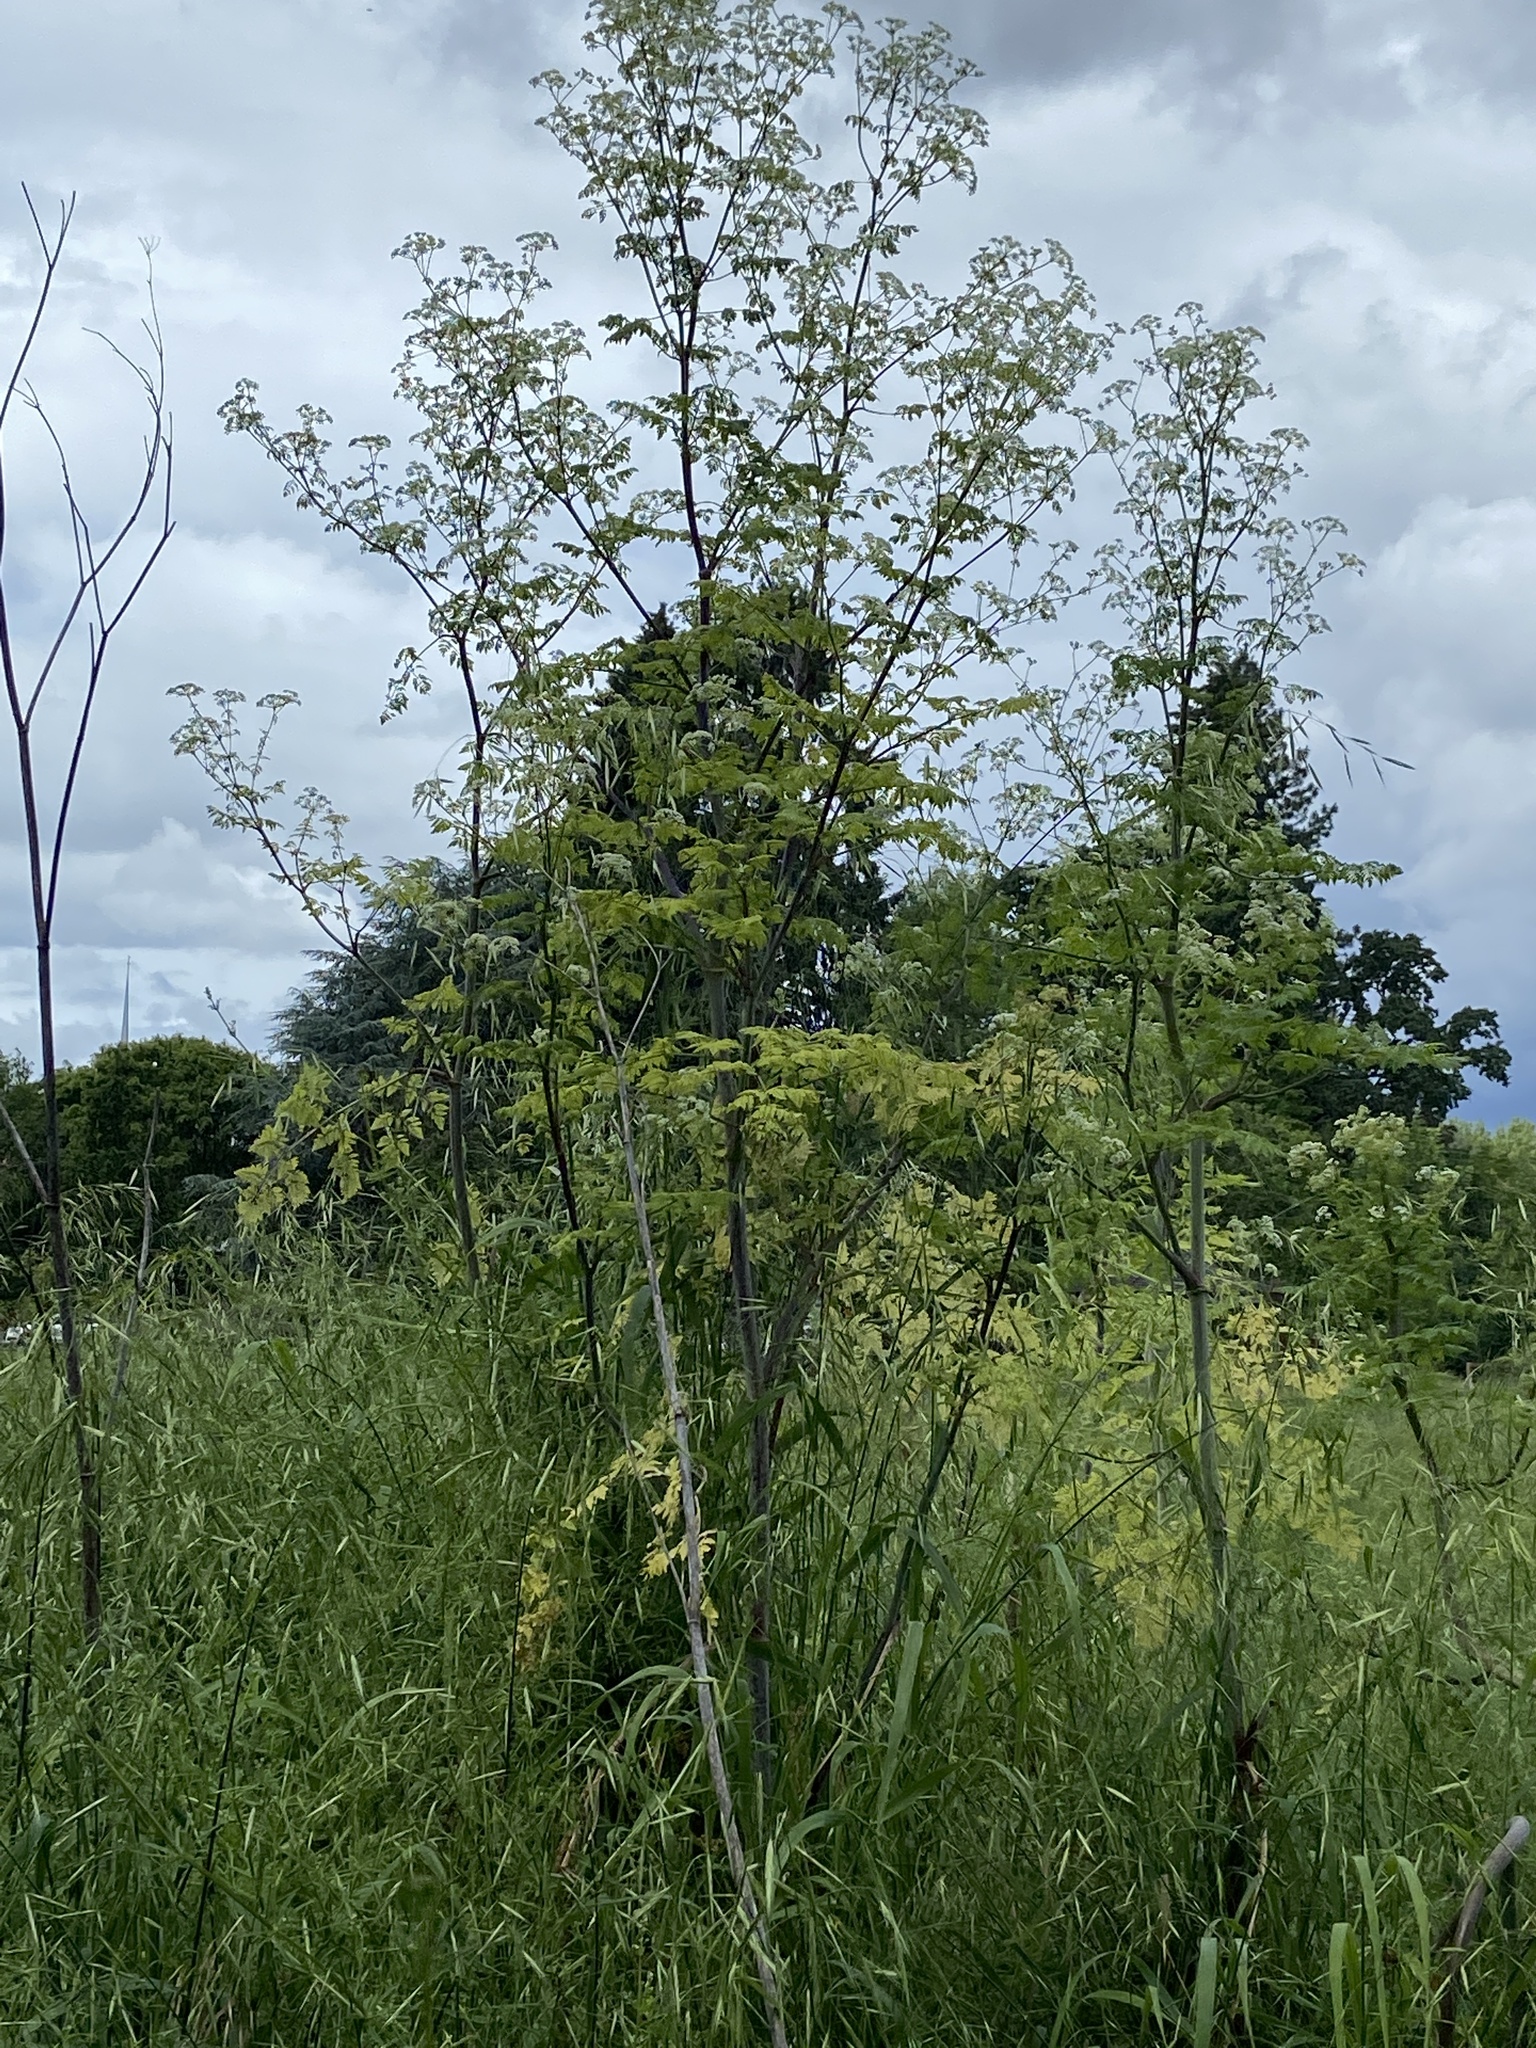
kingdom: Plantae
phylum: Tracheophyta
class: Magnoliopsida
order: Apiales
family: Apiaceae
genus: Conium
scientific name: Conium maculatum
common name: Hemlock
